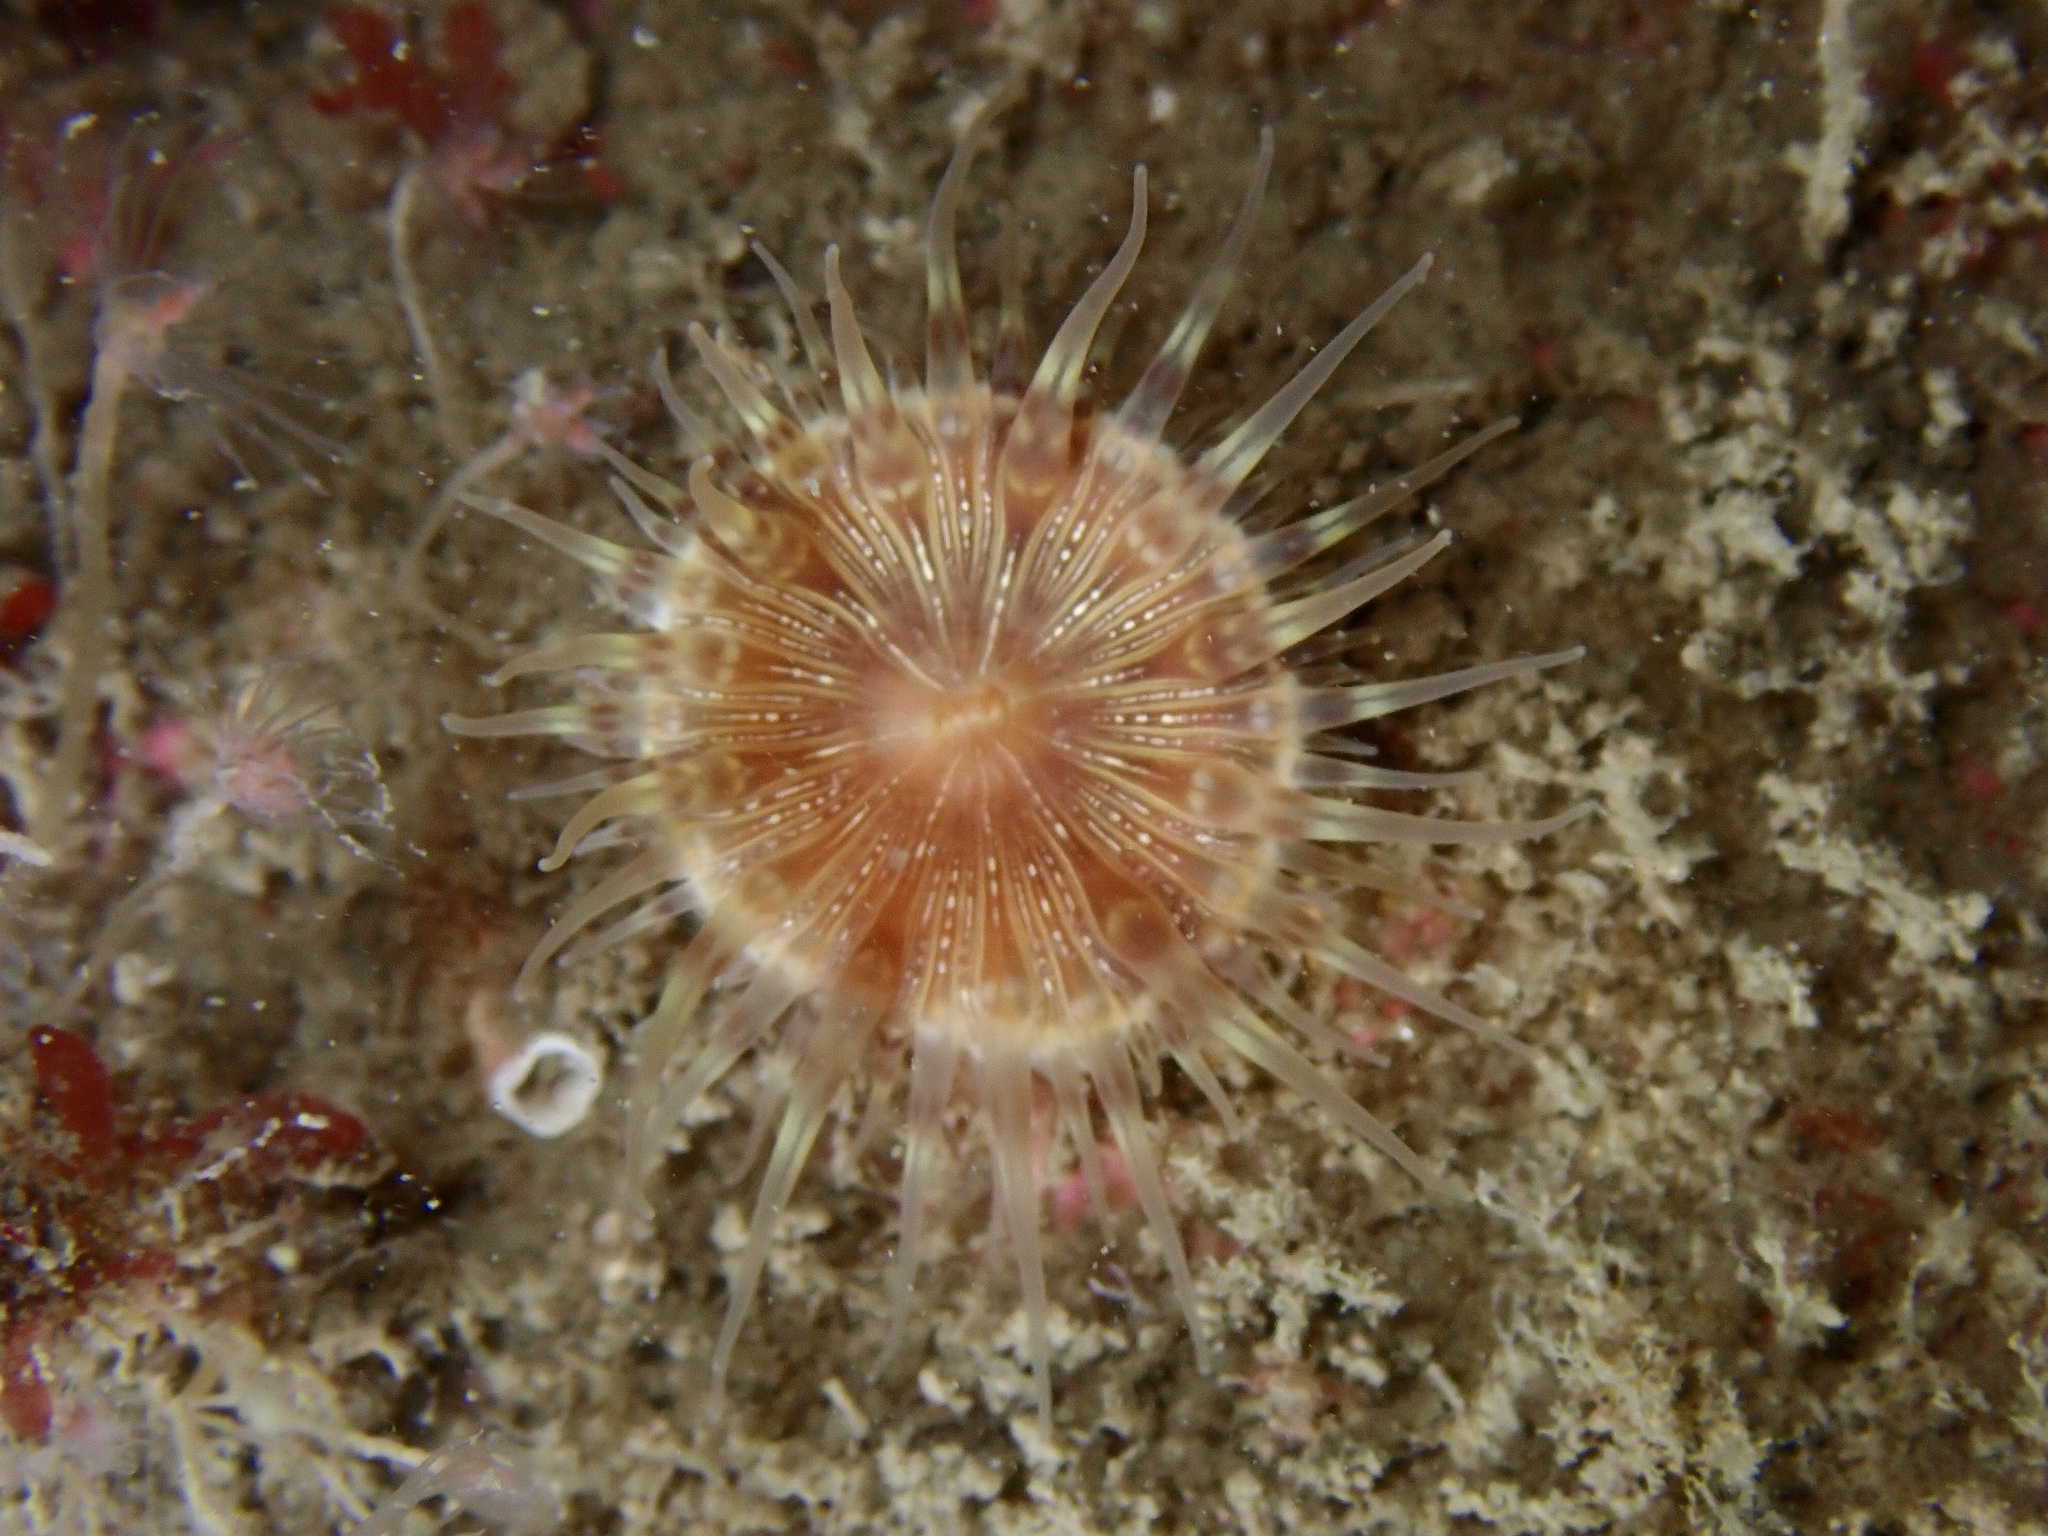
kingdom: Animalia
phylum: Cnidaria
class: Anthozoa
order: Actiniaria
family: Hormathiidae
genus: Hormathia
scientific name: Hormathia coronata
